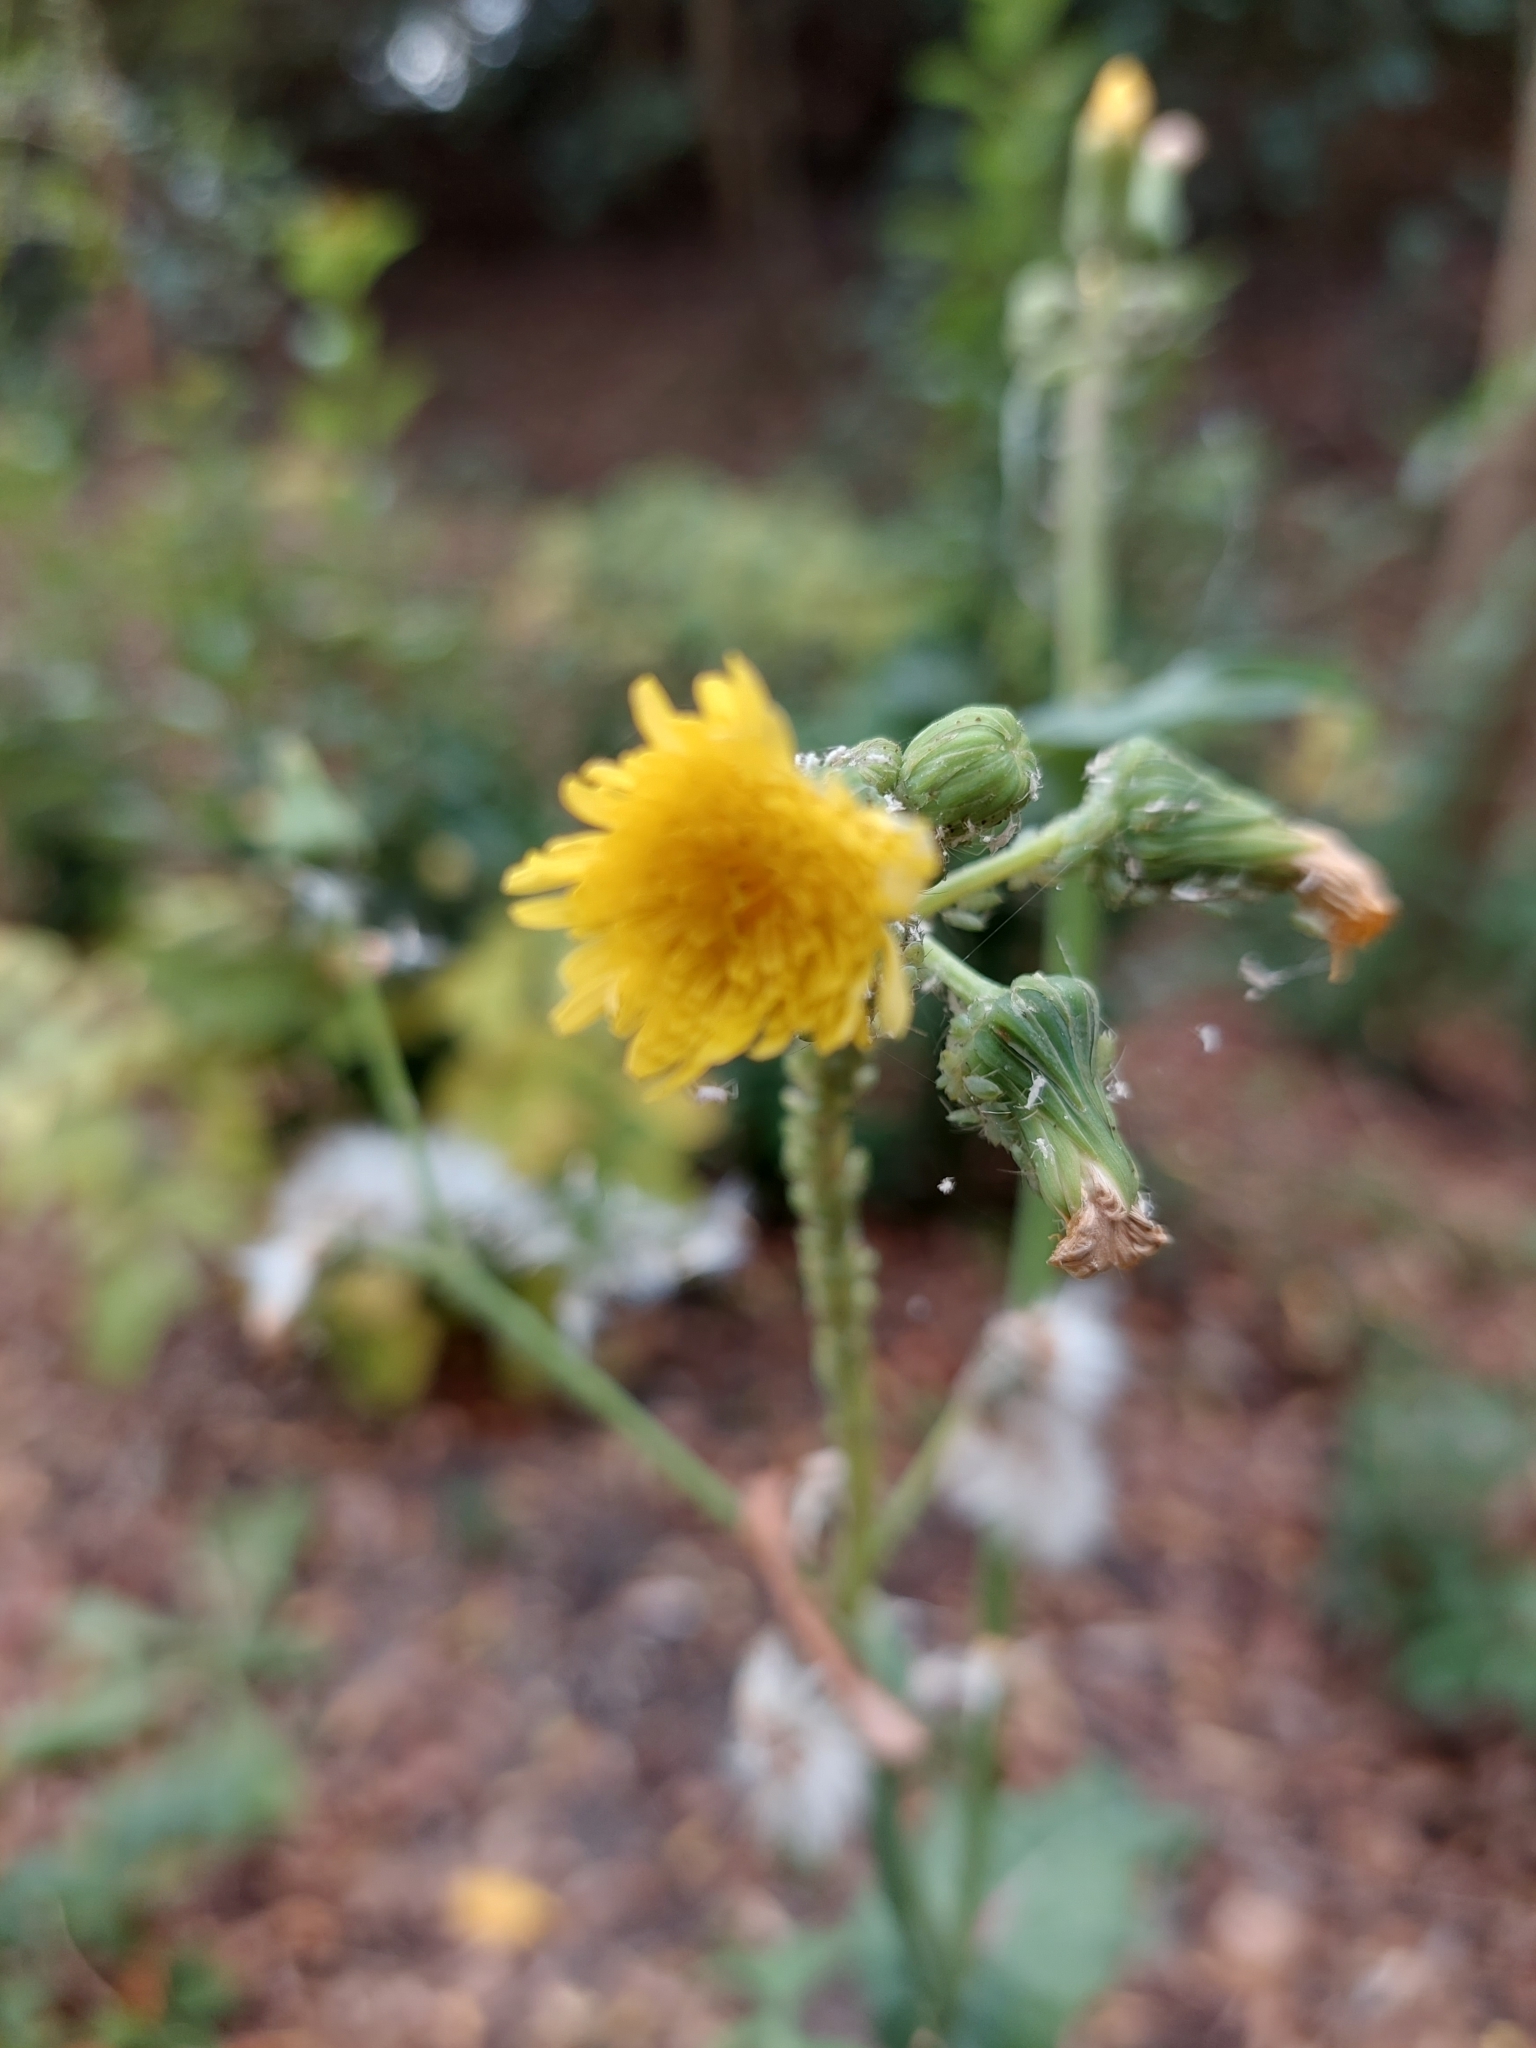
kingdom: Plantae
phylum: Tracheophyta
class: Magnoliopsida
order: Asterales
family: Asteraceae
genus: Sonchus
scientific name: Sonchus oleraceus
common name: Common sowthistle
